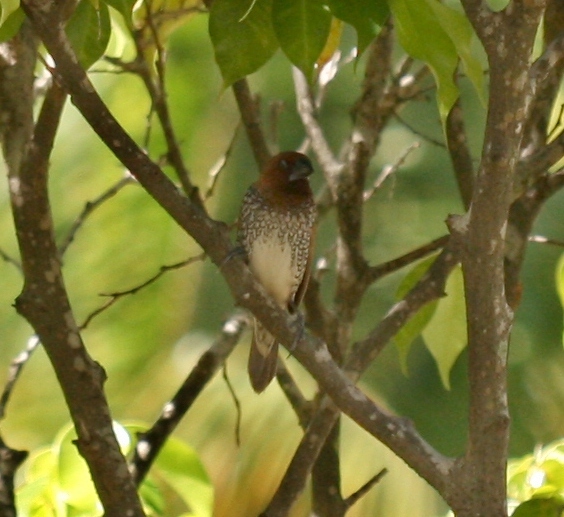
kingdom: Animalia
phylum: Chordata
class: Aves
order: Passeriformes
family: Estrildidae
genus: Lonchura
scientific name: Lonchura punctulata
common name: Scaly-breasted munia
